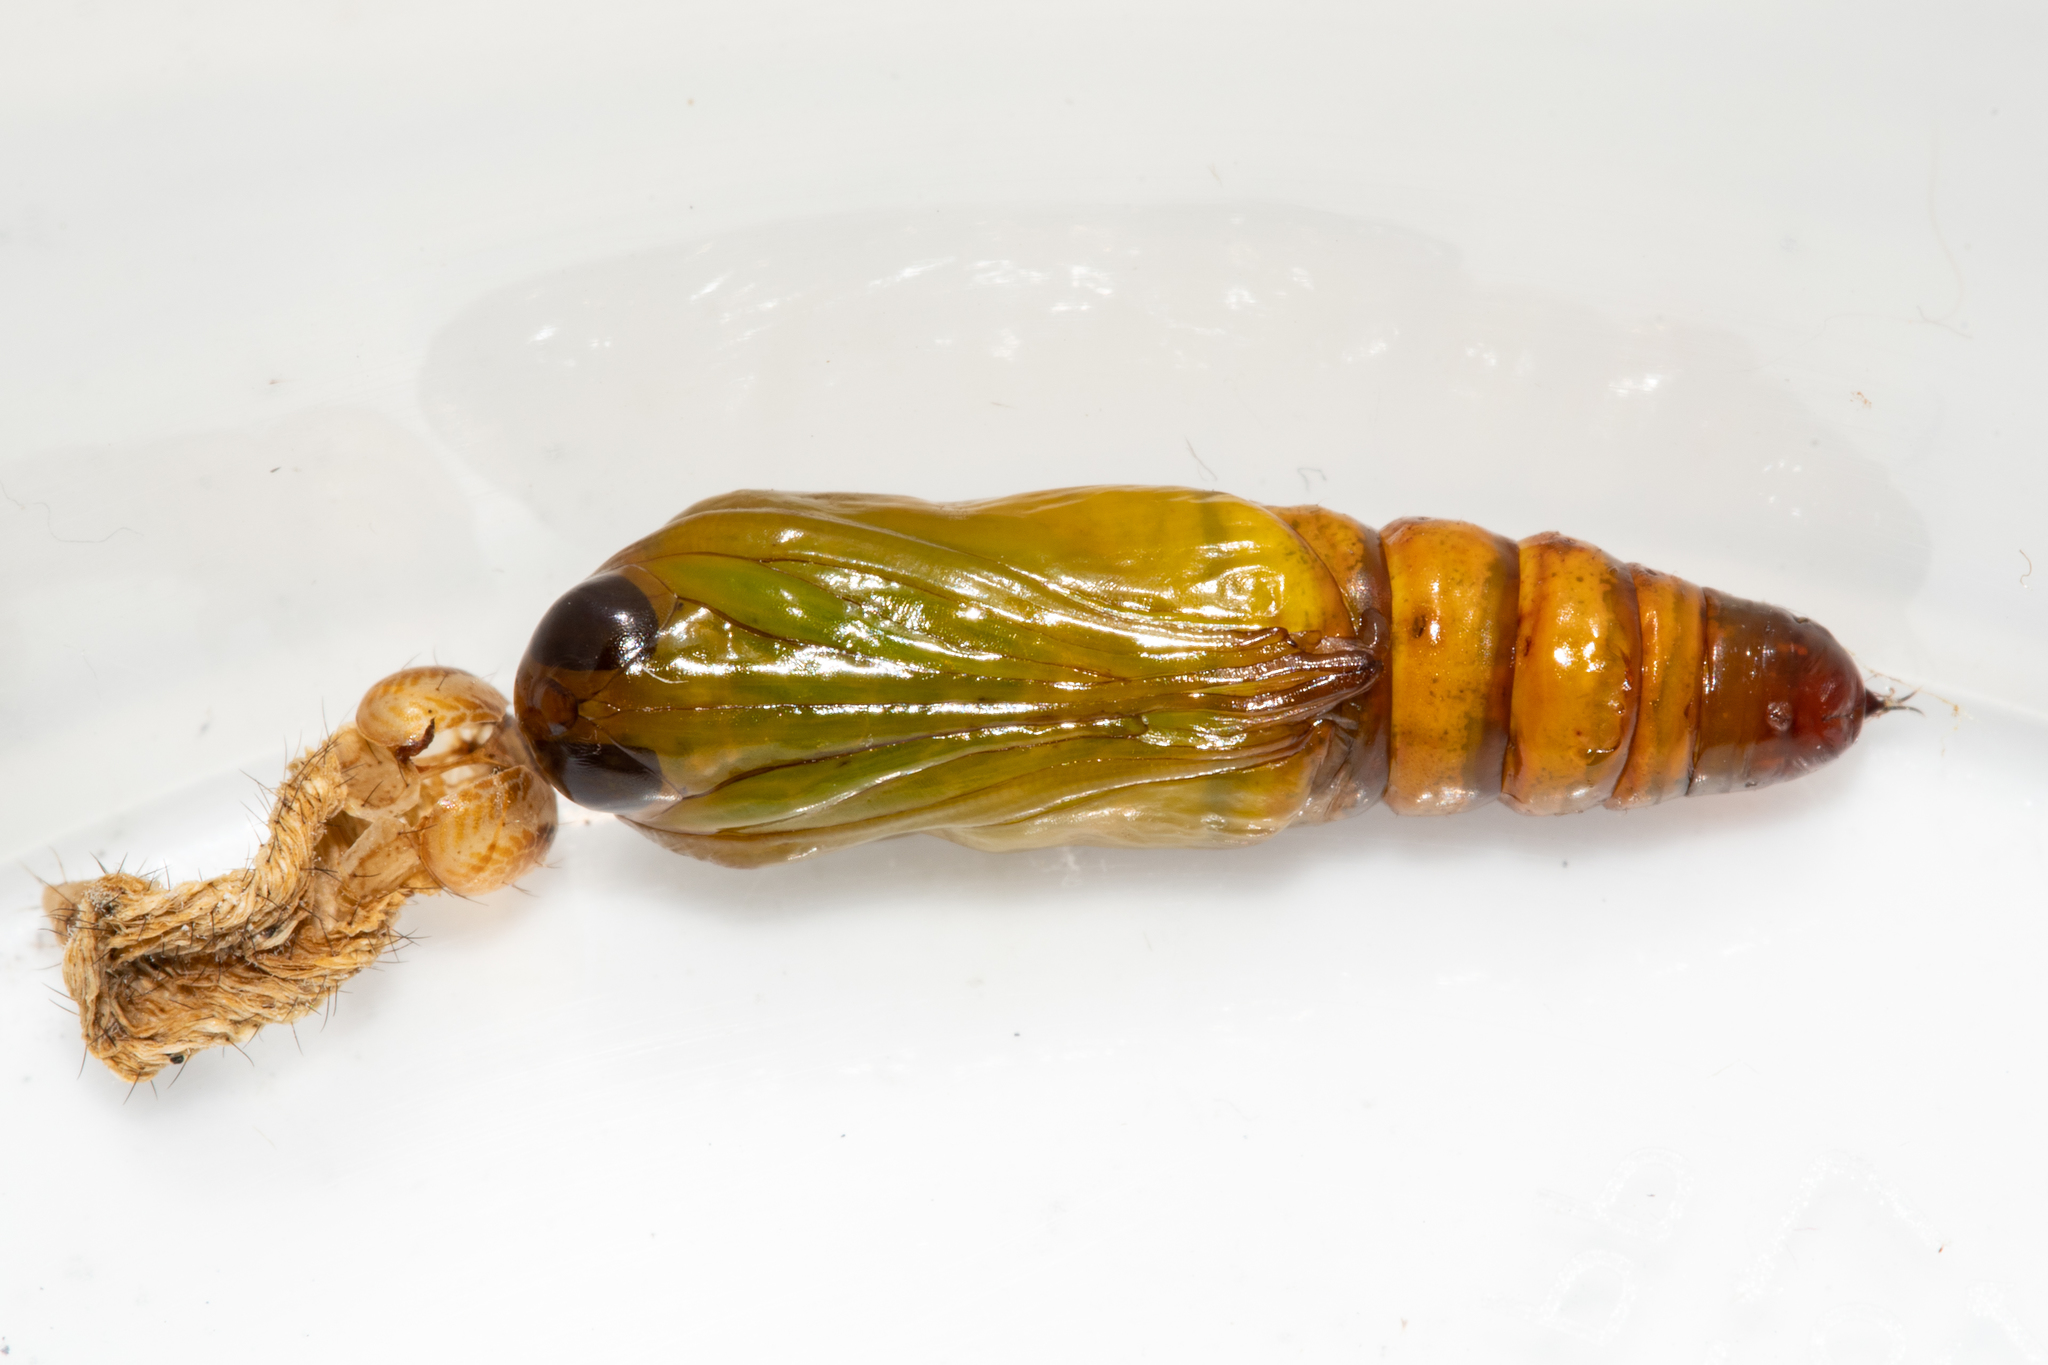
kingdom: Animalia
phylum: Arthropoda
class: Insecta
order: Lepidoptera
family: Geometridae
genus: Mauna
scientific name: Mauna filia
